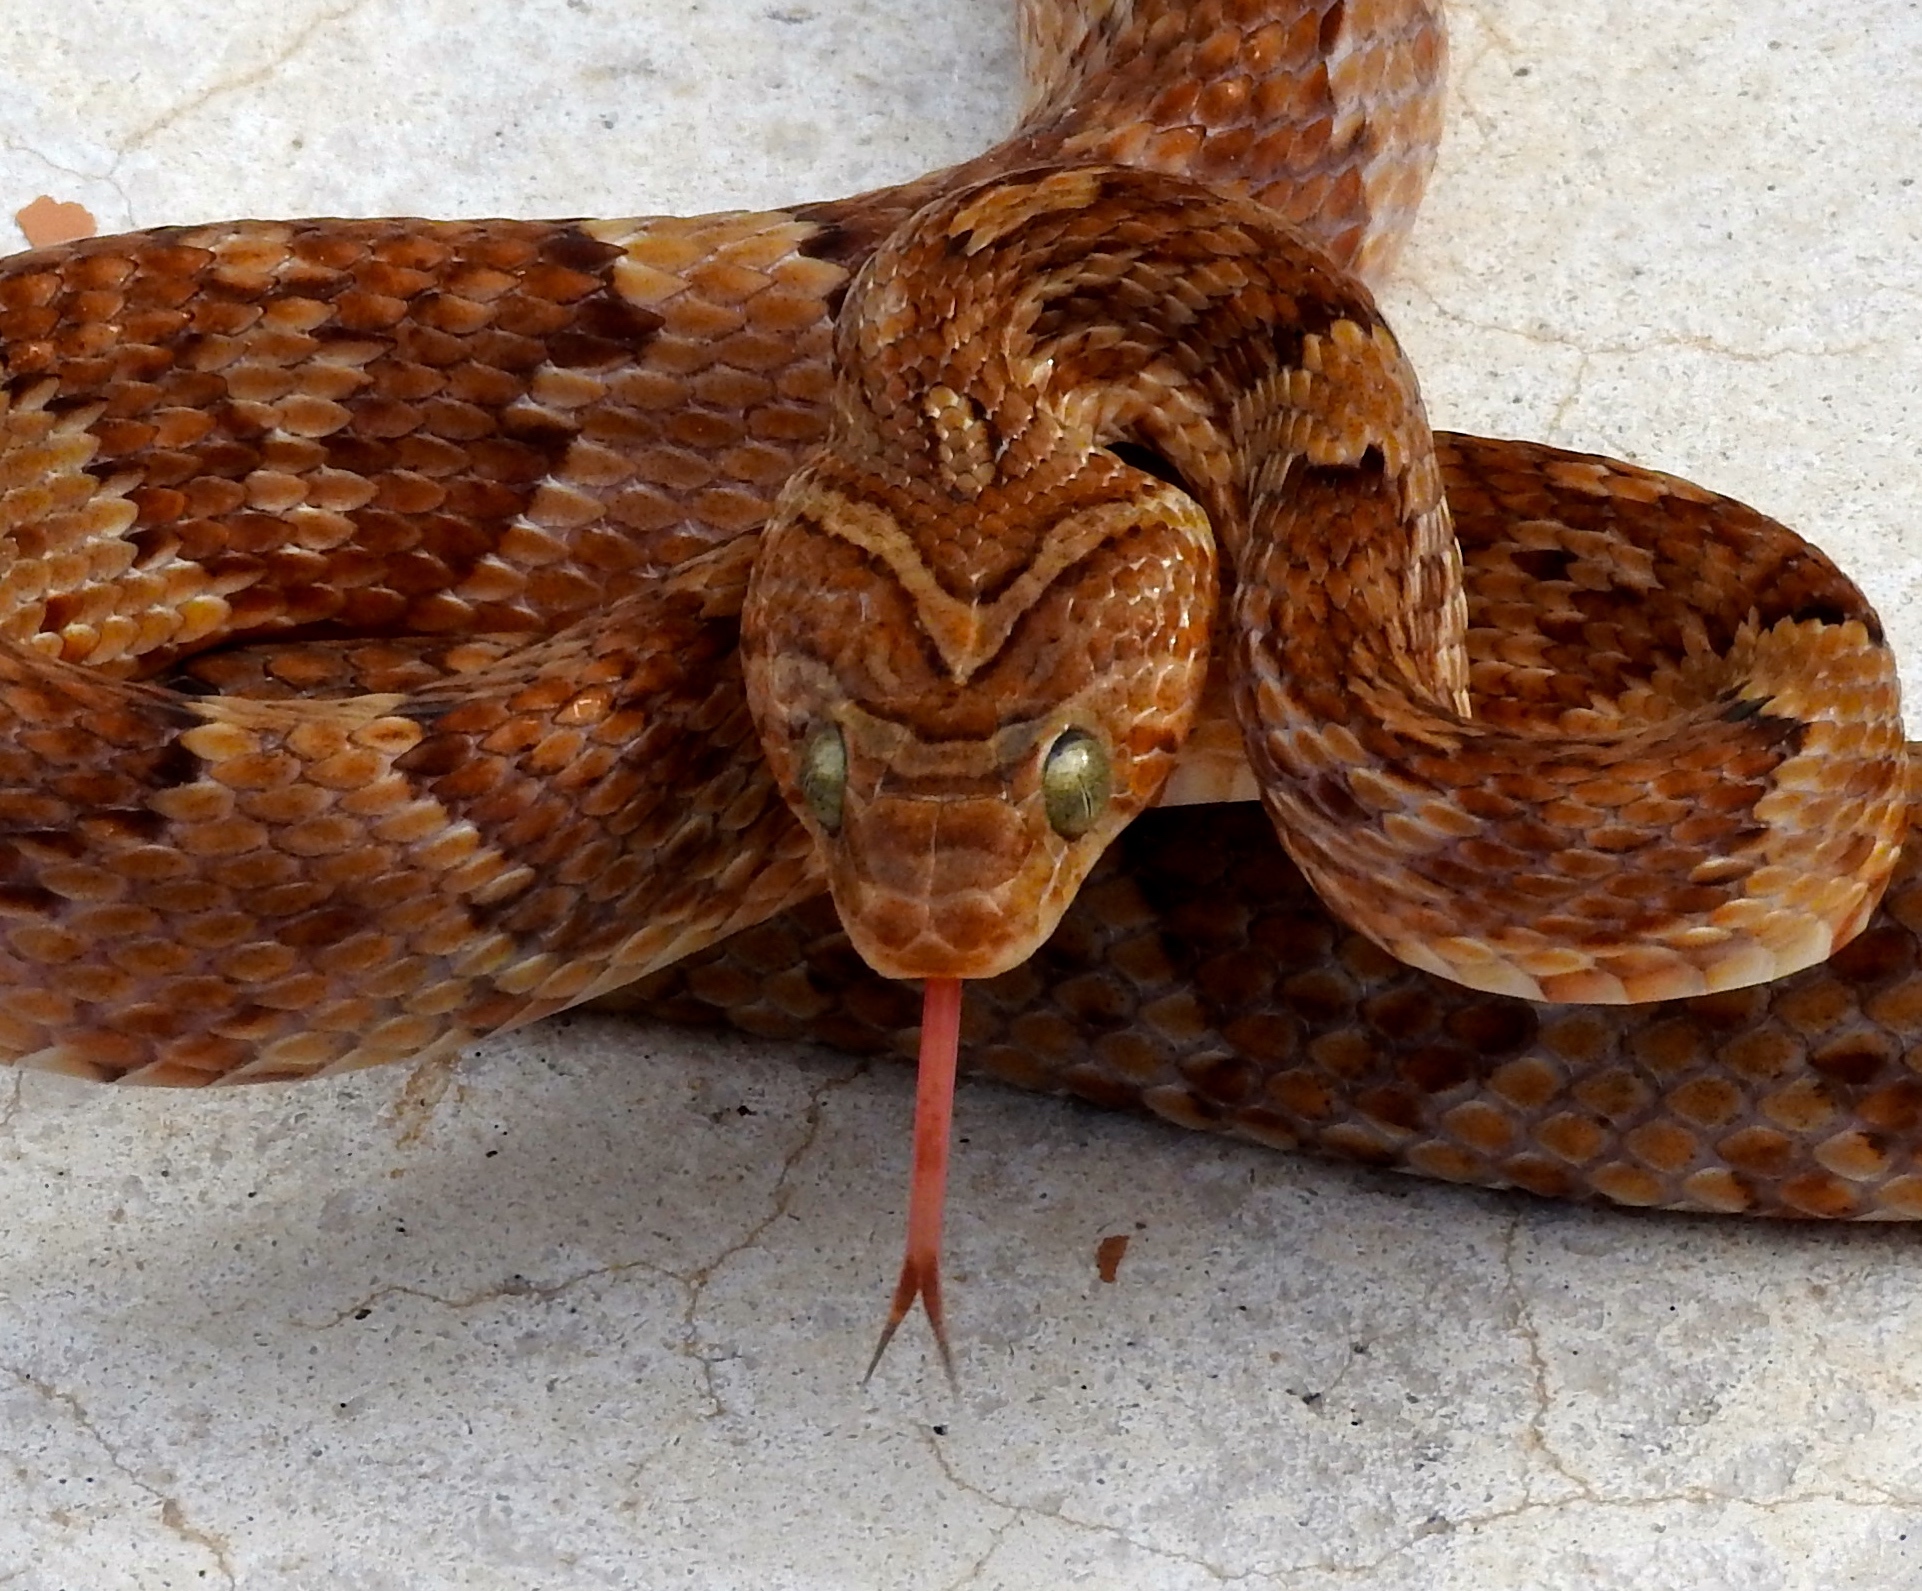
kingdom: Animalia
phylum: Chordata
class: Squamata
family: Colubridae
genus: Trimorphodon
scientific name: Trimorphodon paucimaculatus
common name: Sinaloan lyresnake
